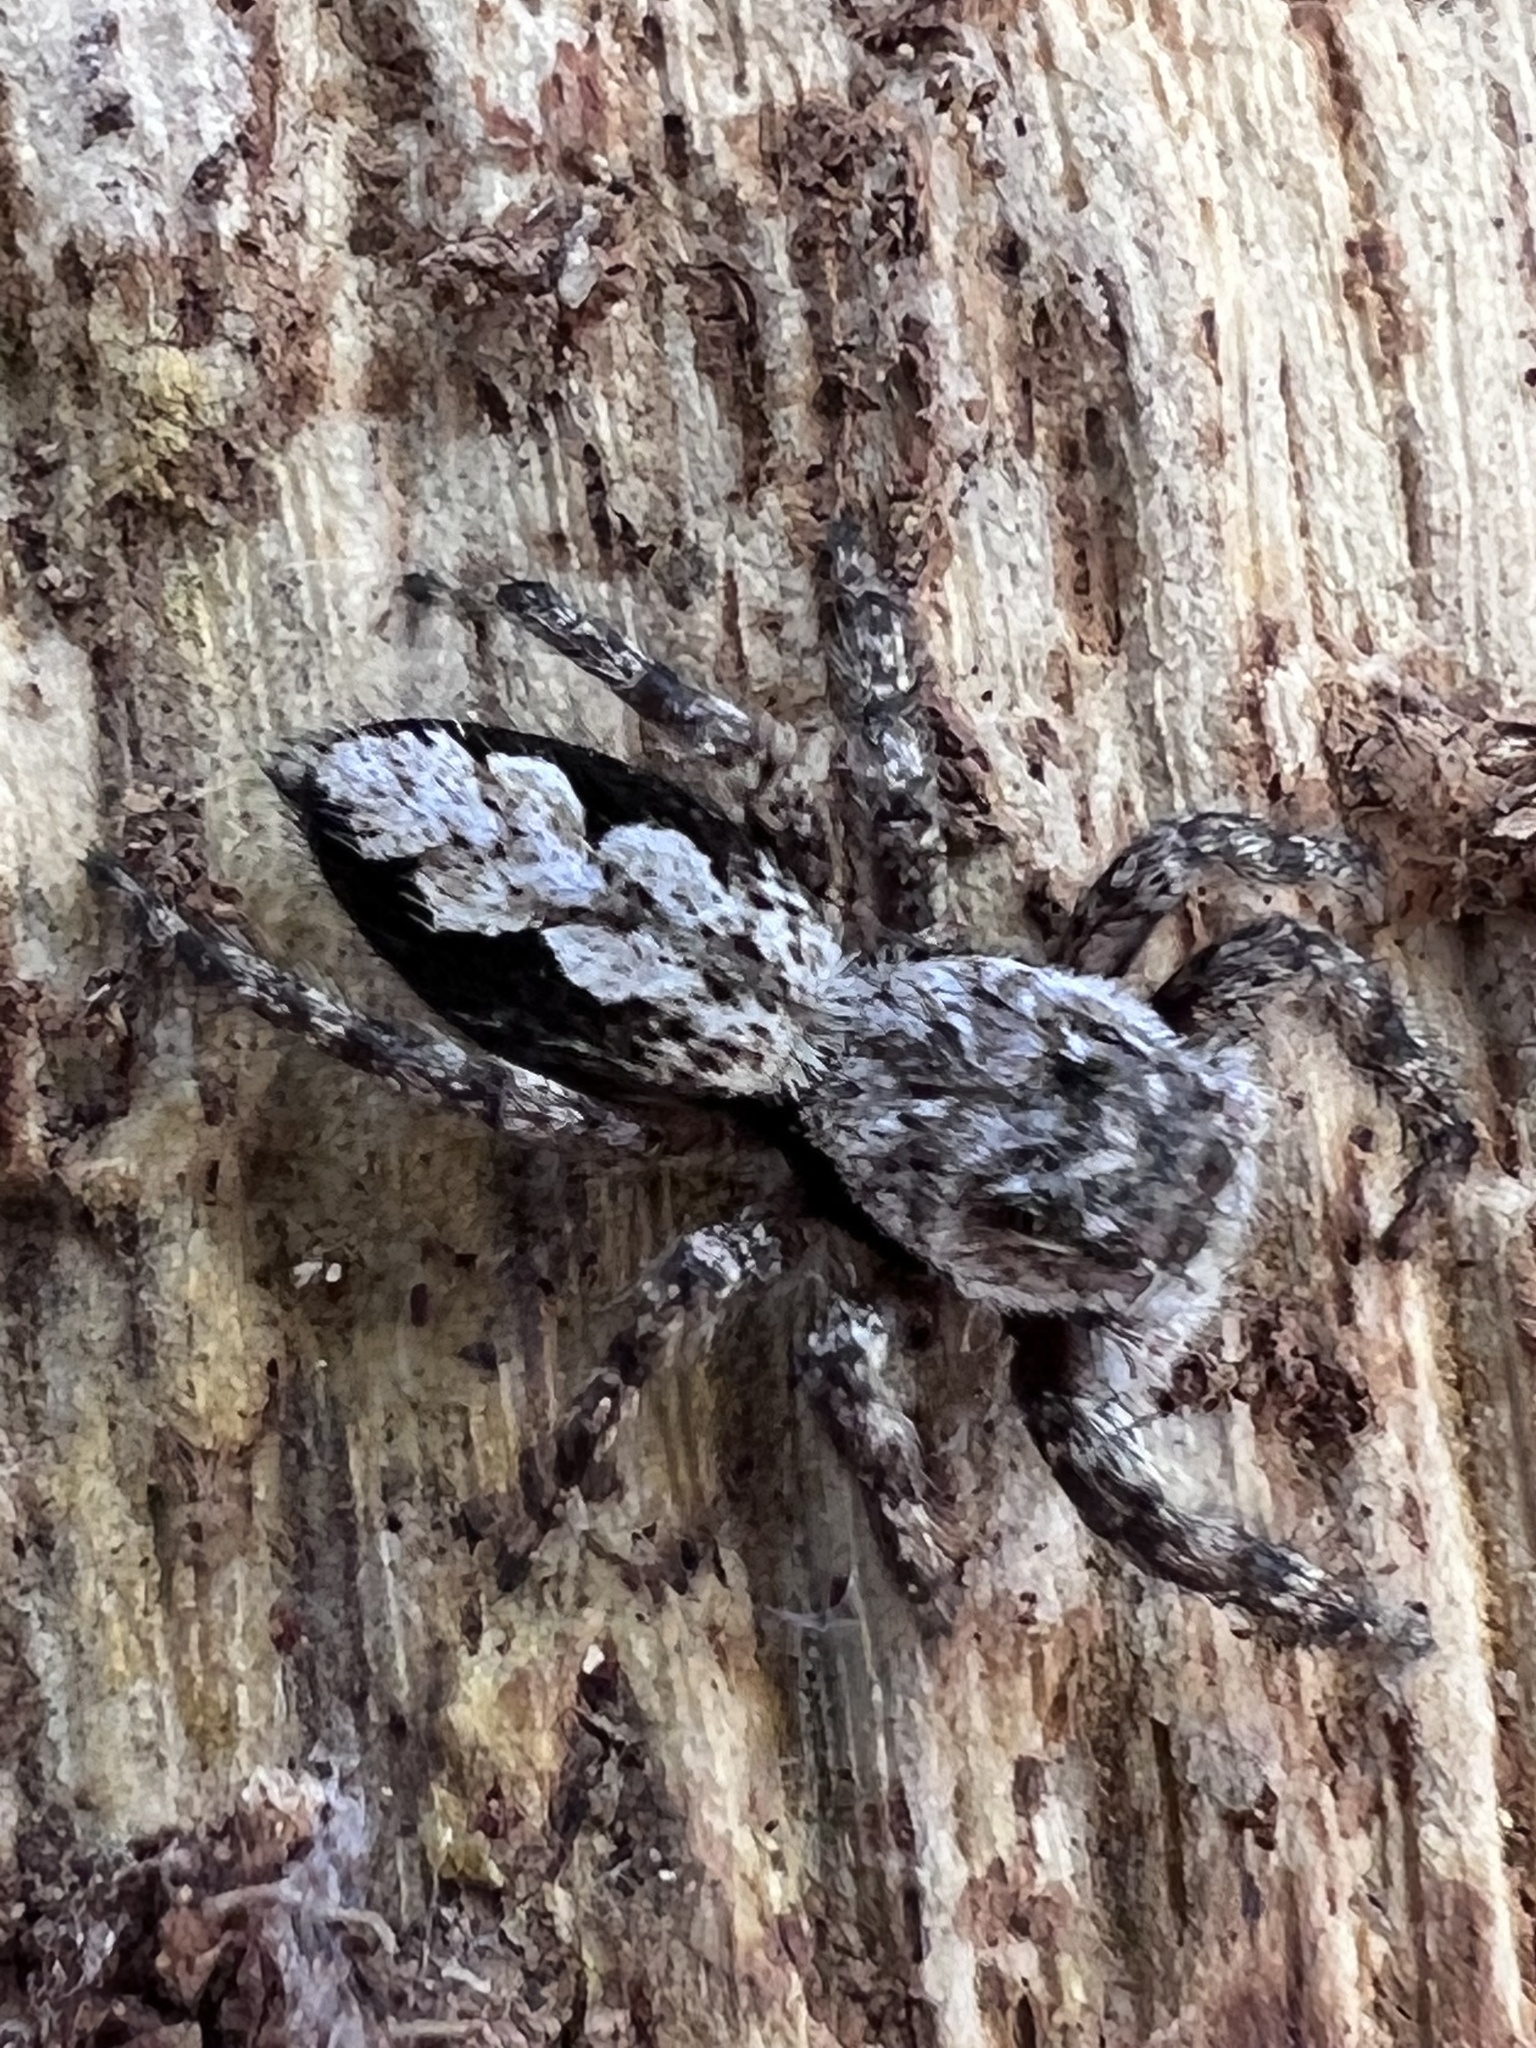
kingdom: Animalia
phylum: Arthropoda
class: Arachnida
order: Araneae
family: Salticidae
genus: Platycryptus
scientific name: Platycryptus undatus
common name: Tan jumping spider
